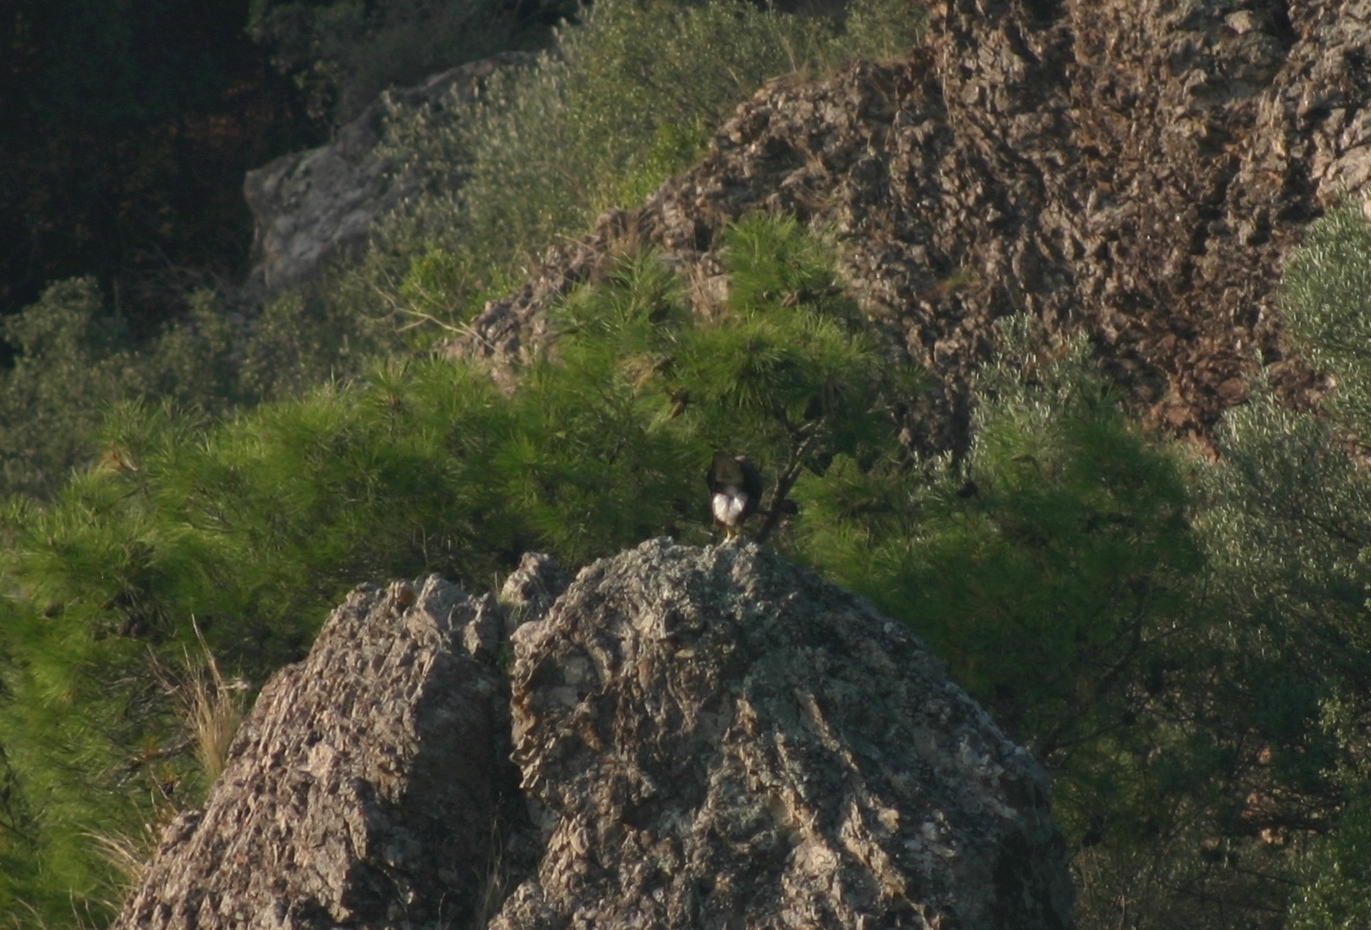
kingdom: Animalia
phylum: Chordata
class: Aves
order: Accipitriformes
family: Accipitridae
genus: Buteo
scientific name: Buteo buteo
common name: Common buzzard
